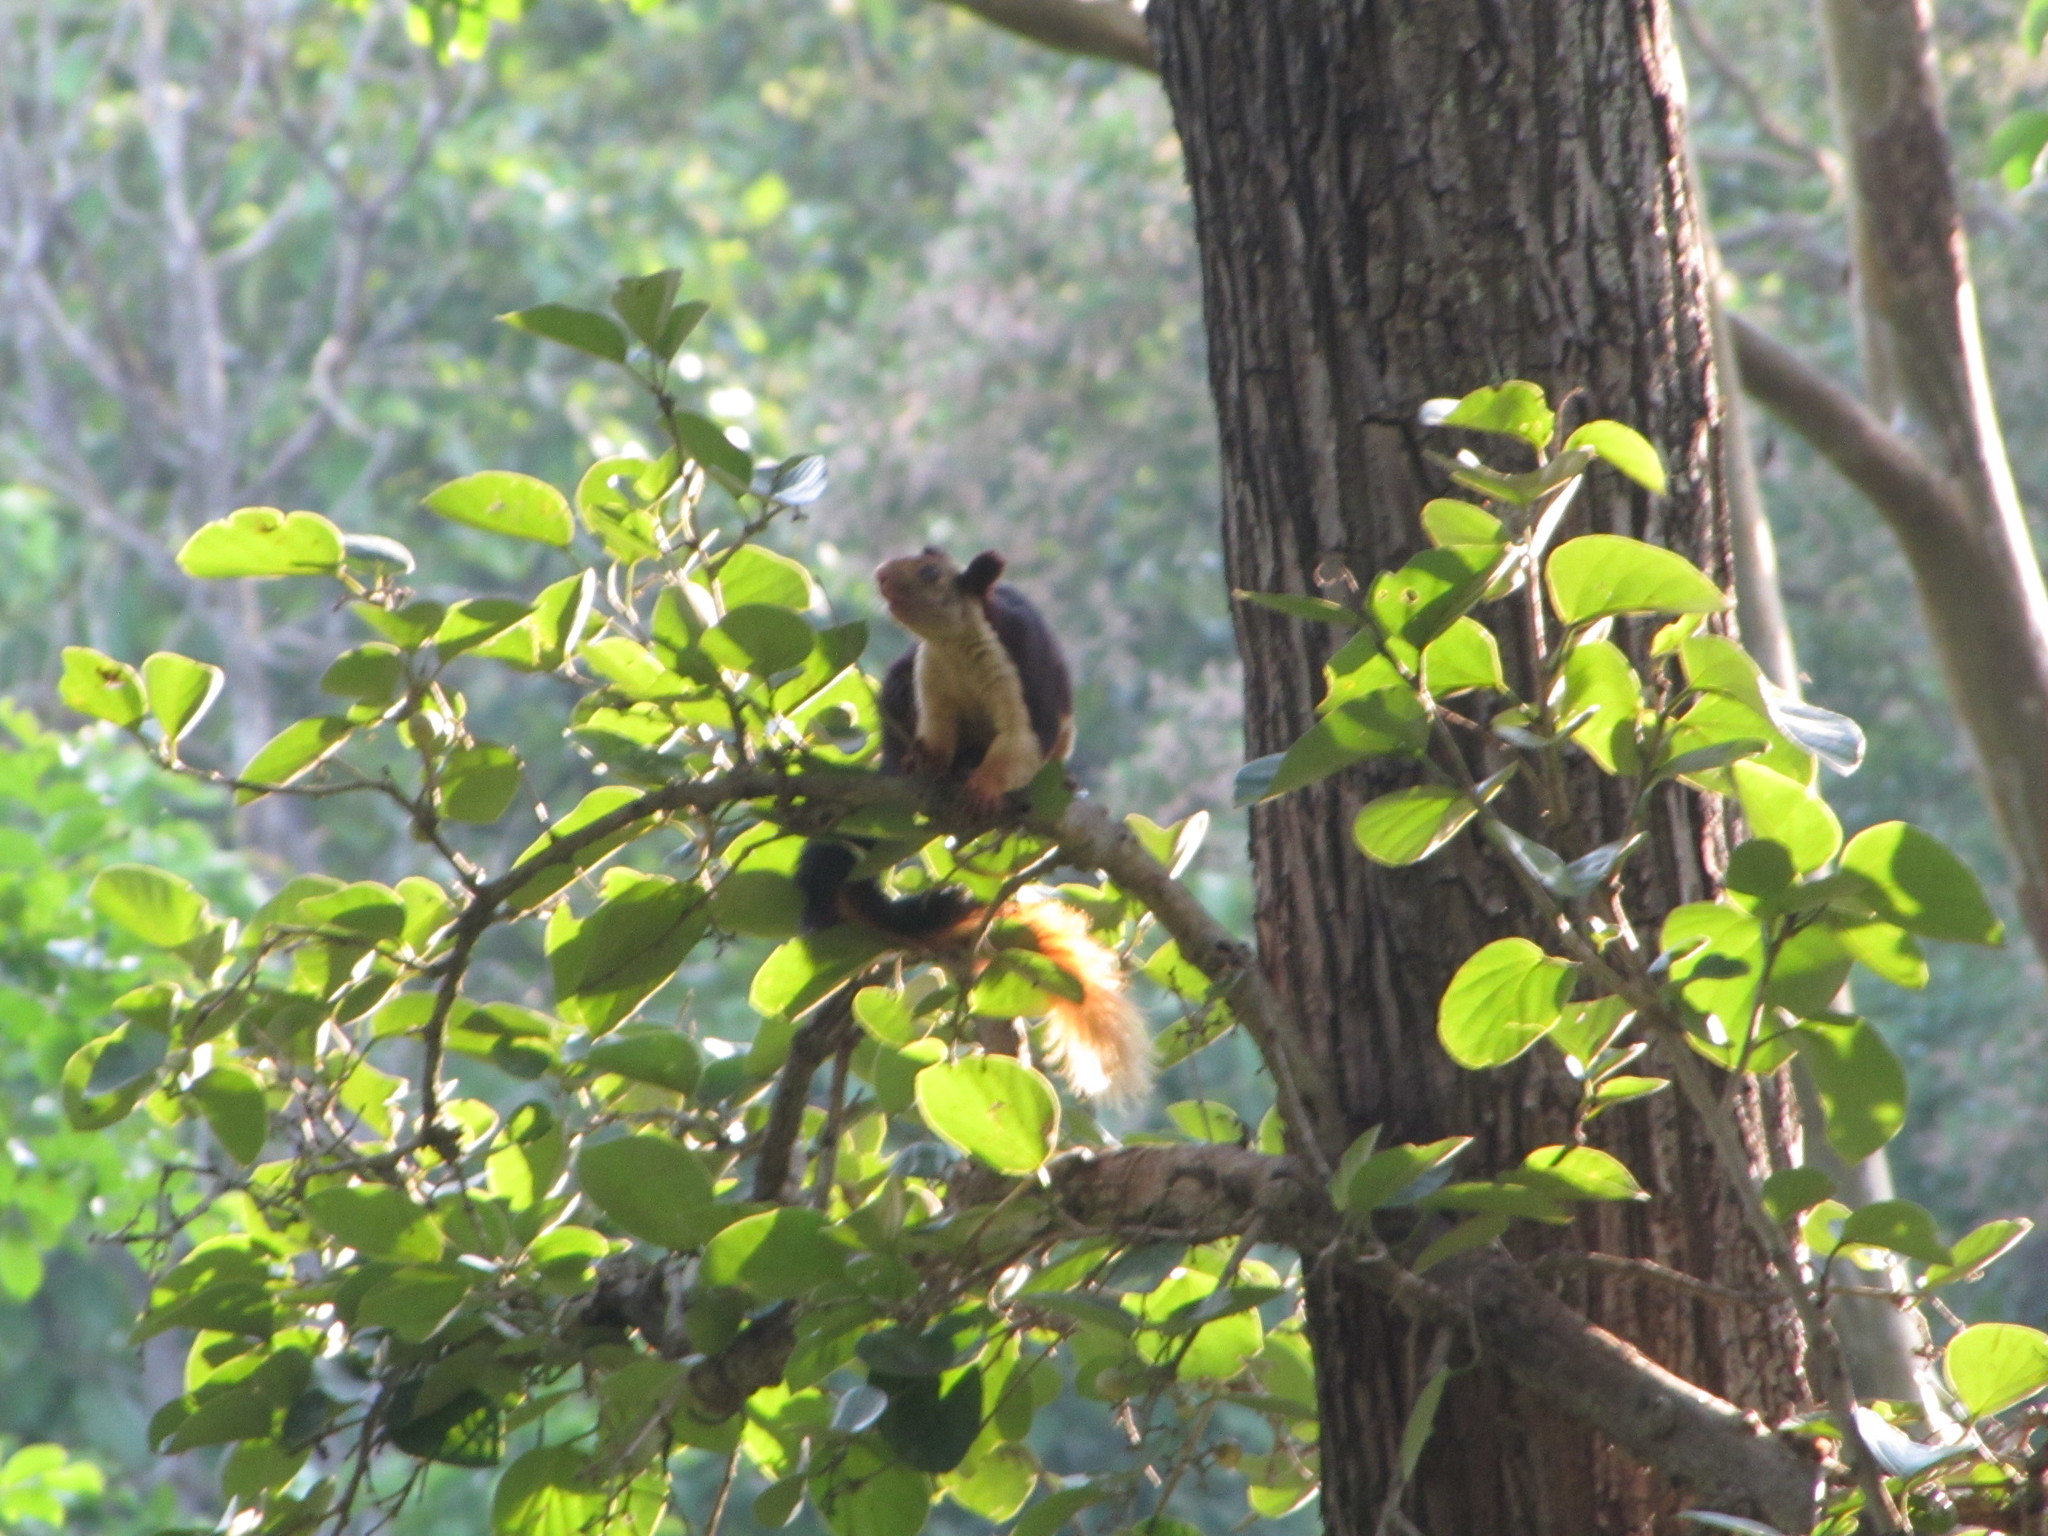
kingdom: Animalia
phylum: Chordata
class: Mammalia
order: Rodentia
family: Sciuridae
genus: Ratufa
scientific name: Ratufa indica
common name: Indian giant squirrel
